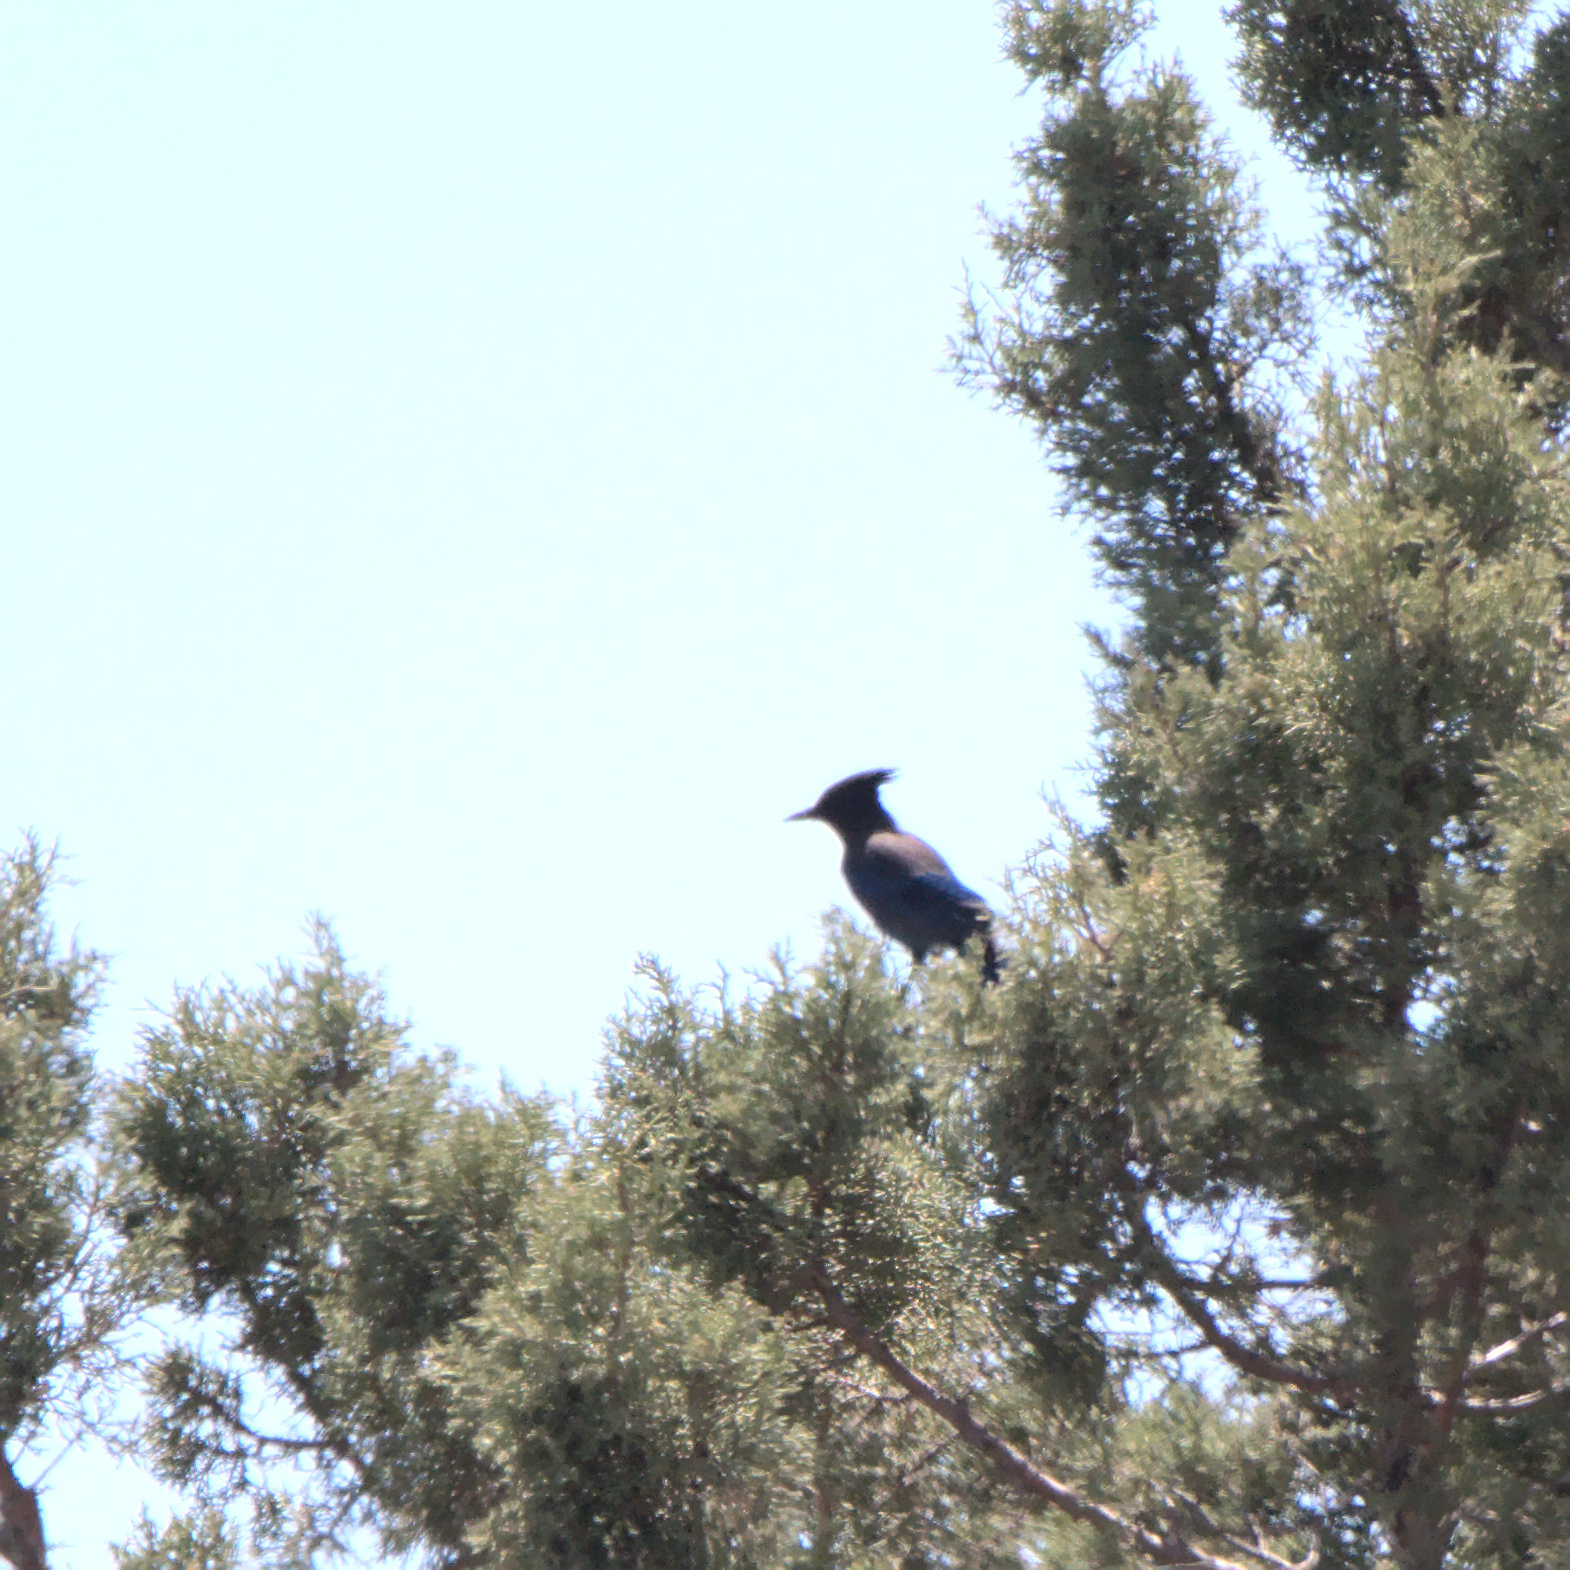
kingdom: Animalia
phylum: Chordata
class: Aves
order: Passeriformes
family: Corvidae
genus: Cyanocitta
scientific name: Cyanocitta stelleri
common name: Steller's jay
